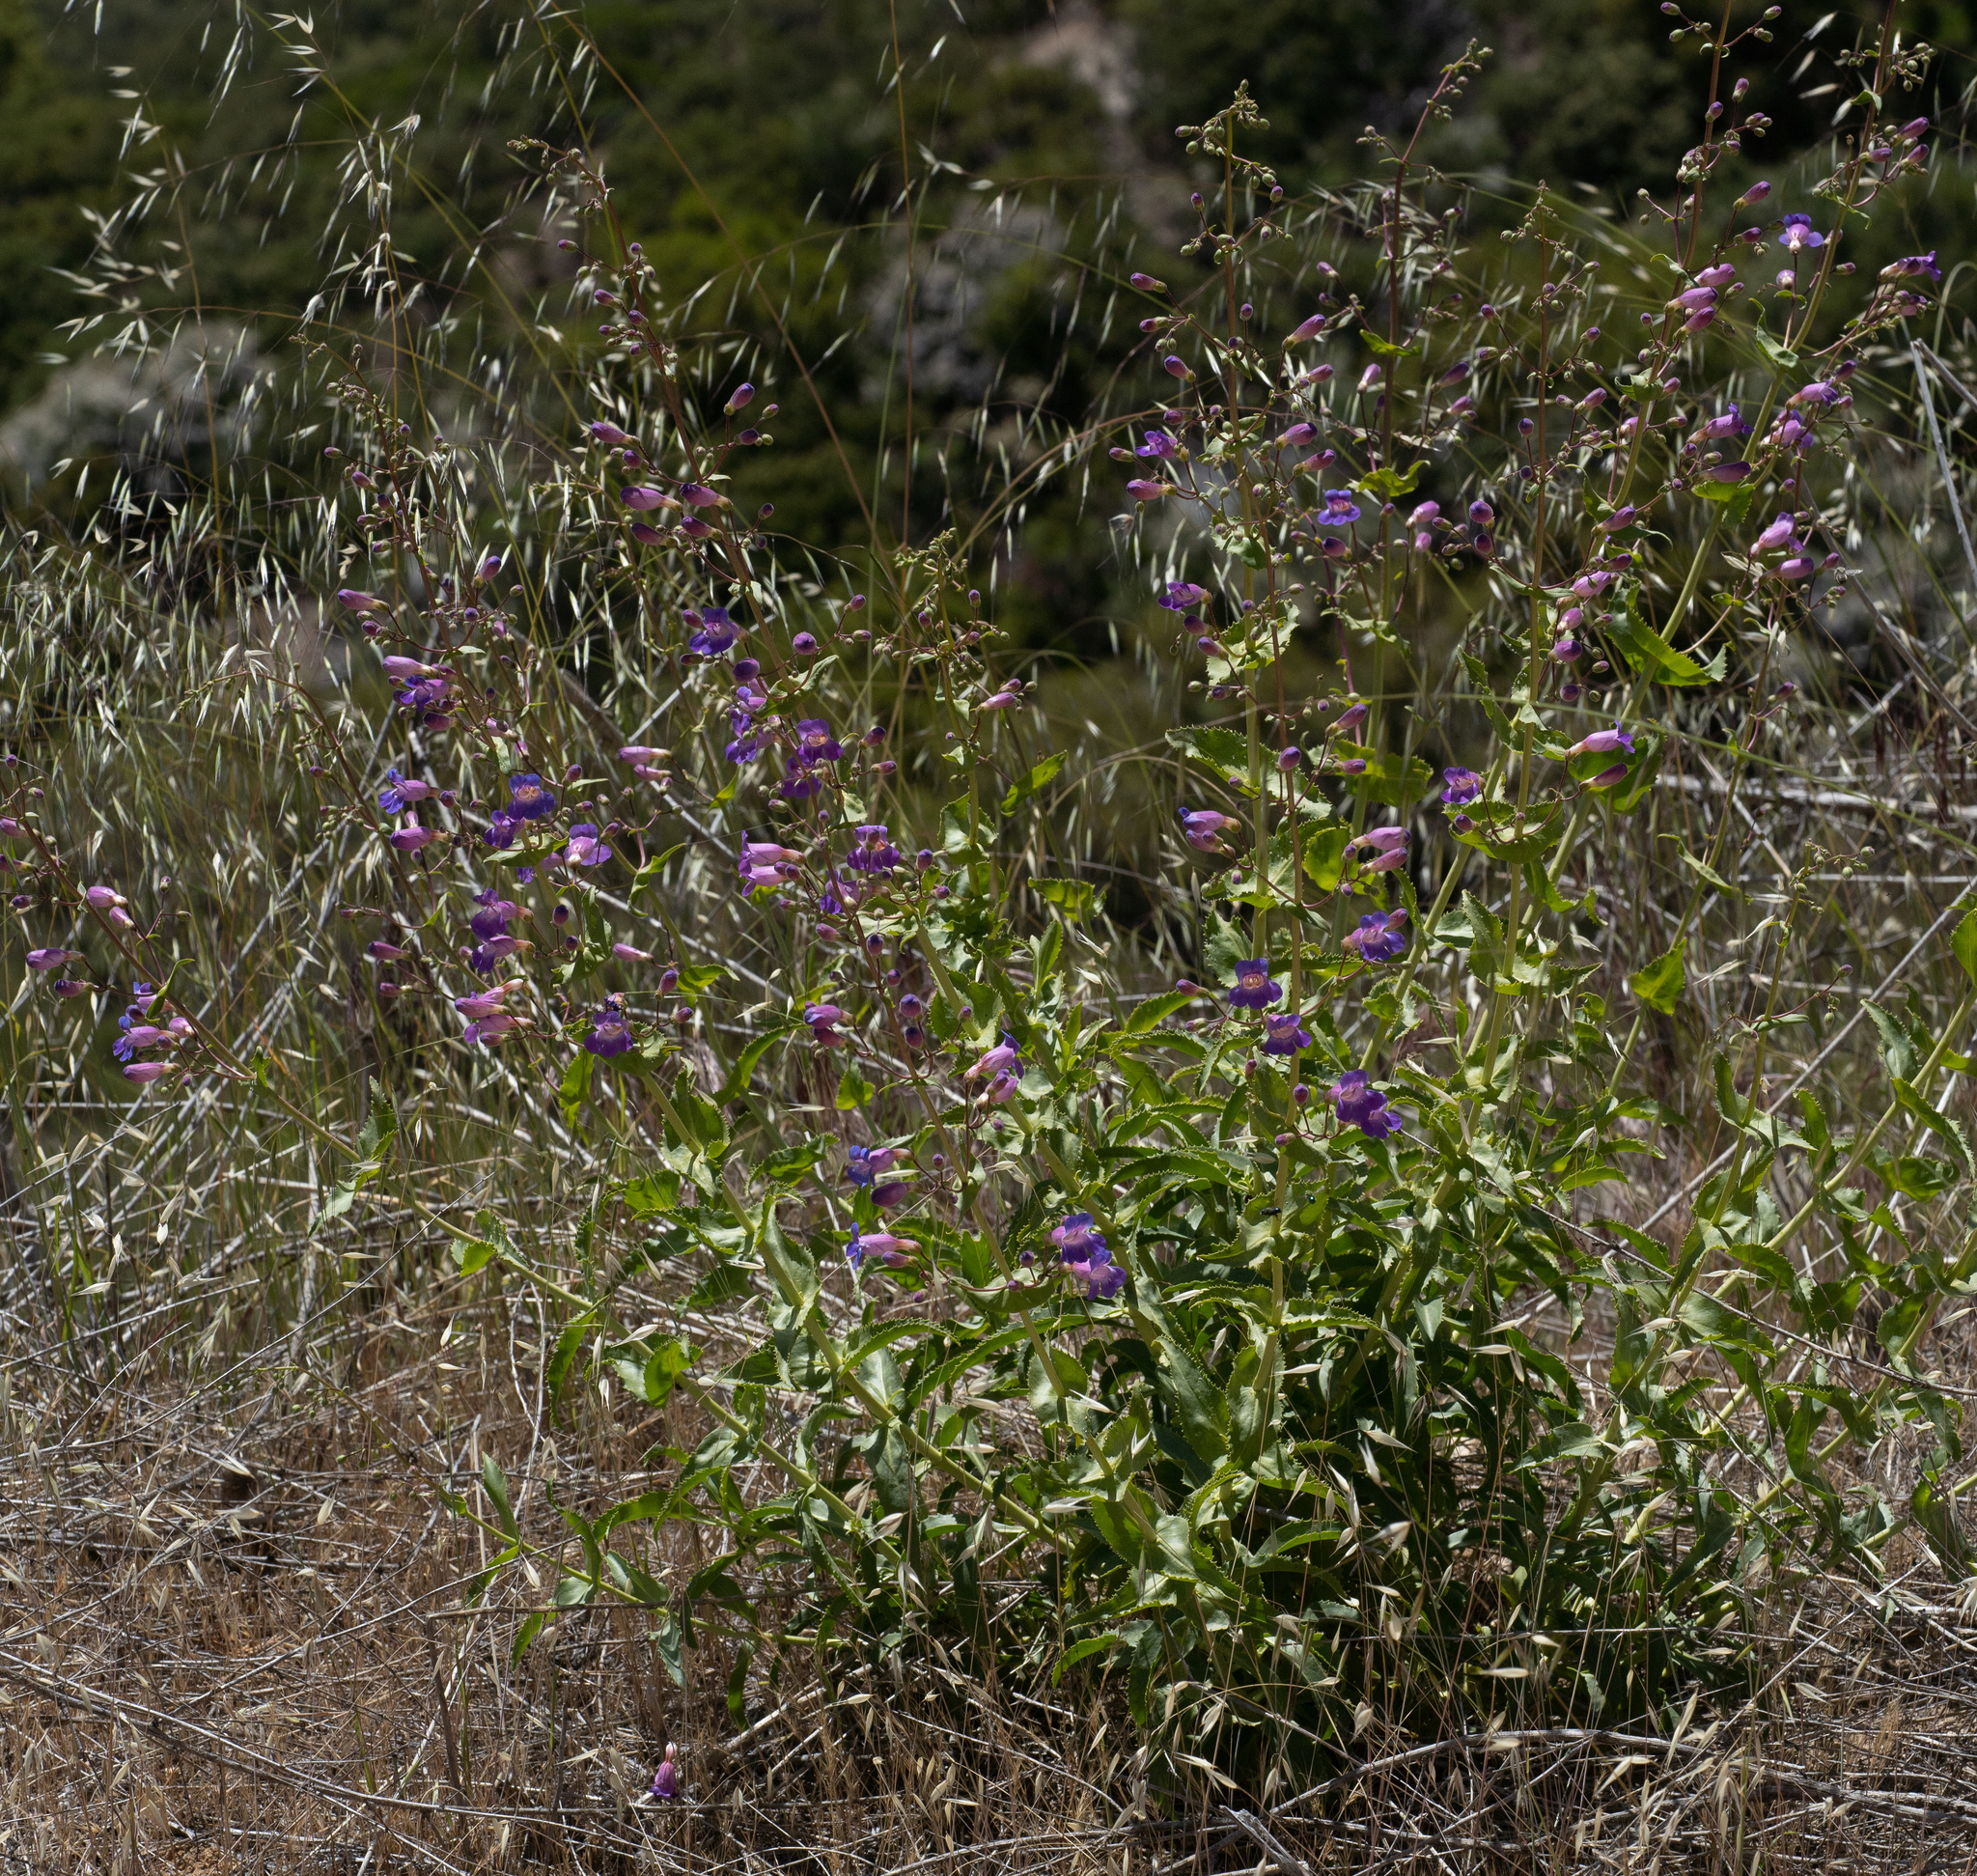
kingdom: Plantae
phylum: Tracheophyta
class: Magnoliopsida
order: Lamiales
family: Plantaginaceae
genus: Penstemon
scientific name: Penstemon spectabilis
